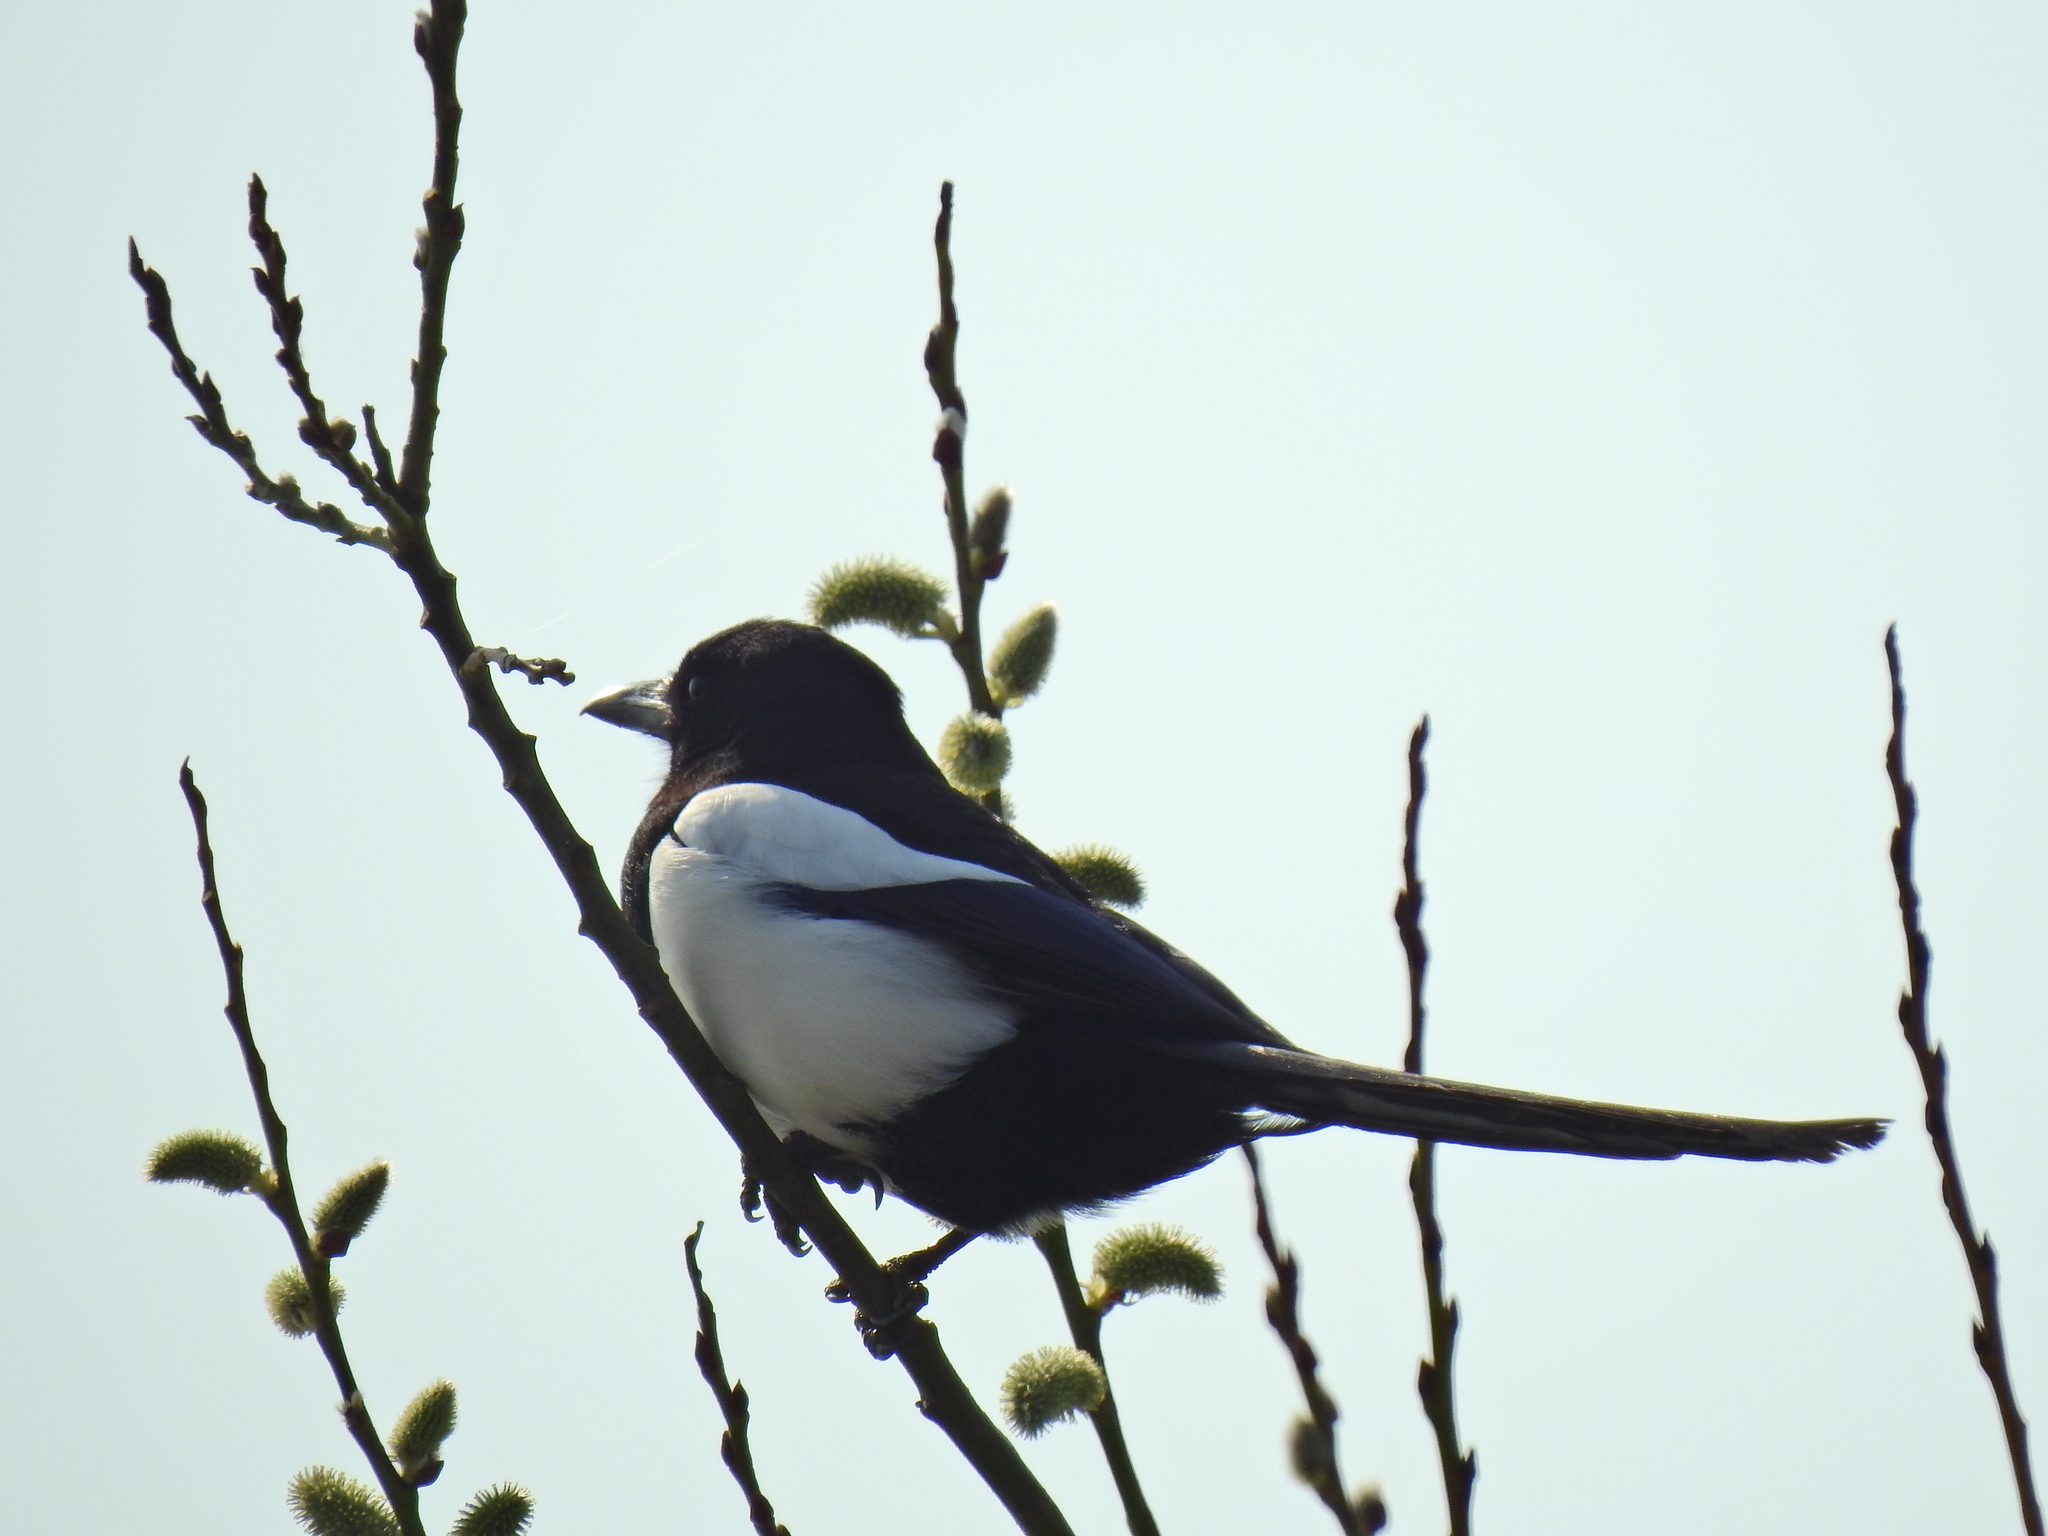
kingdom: Animalia
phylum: Chordata
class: Aves
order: Passeriformes
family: Corvidae
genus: Pica
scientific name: Pica pica
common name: Eurasian magpie
